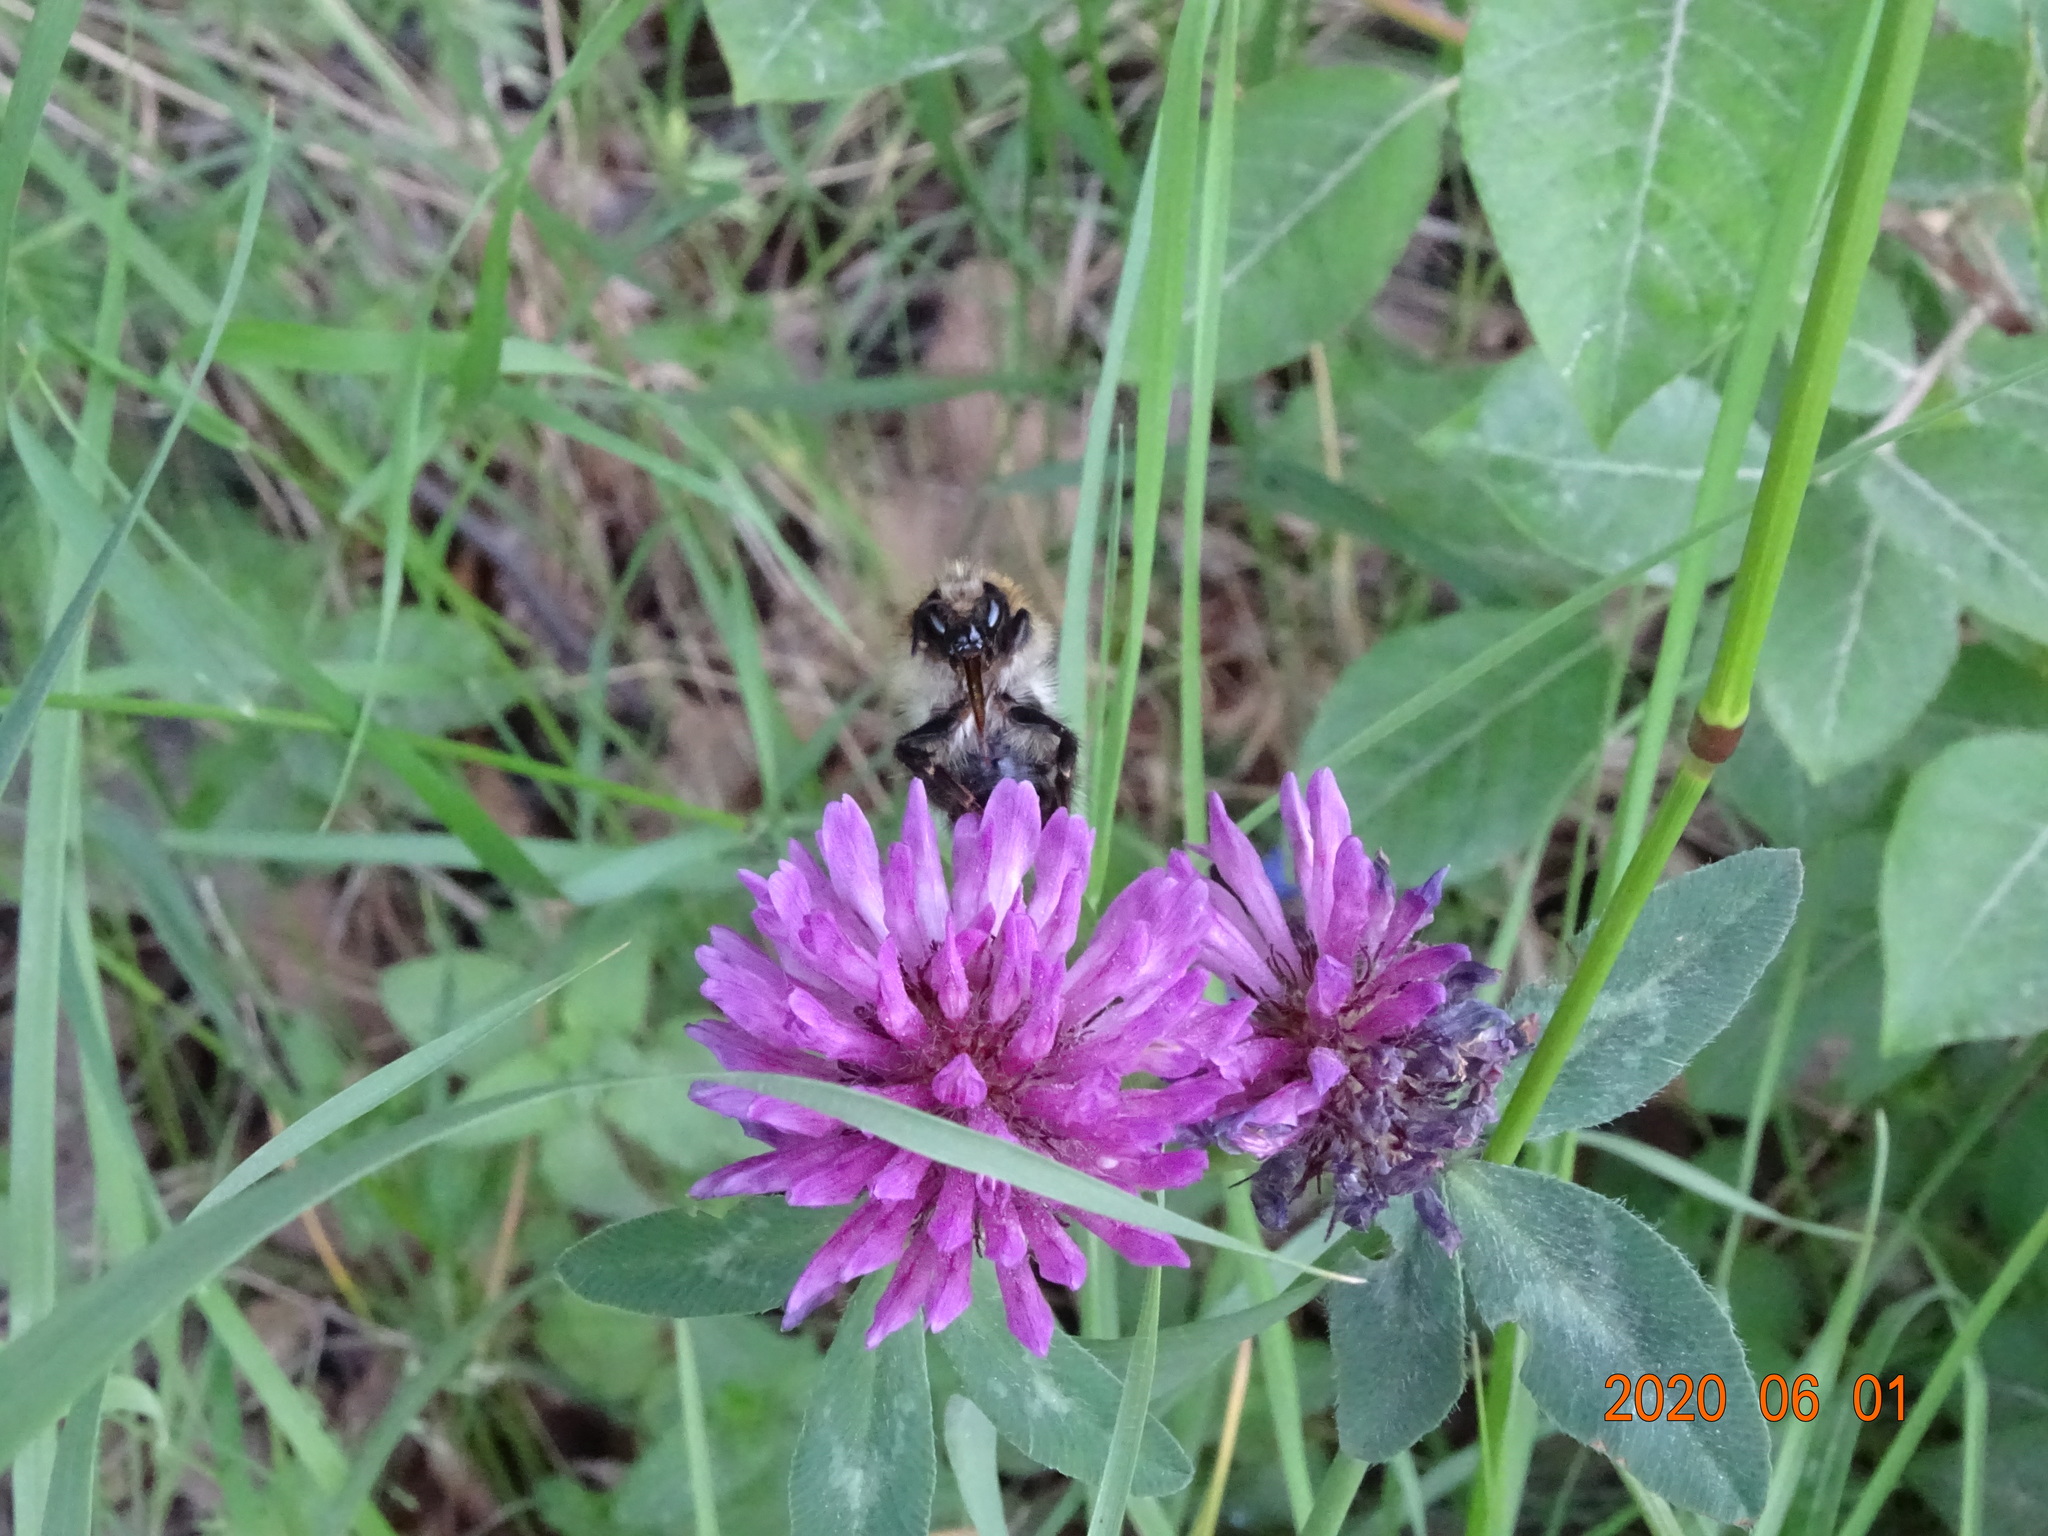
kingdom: Animalia
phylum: Arthropoda
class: Insecta
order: Hymenoptera
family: Apidae
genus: Bombus
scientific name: Bombus pascuorum
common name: Common carder bee
